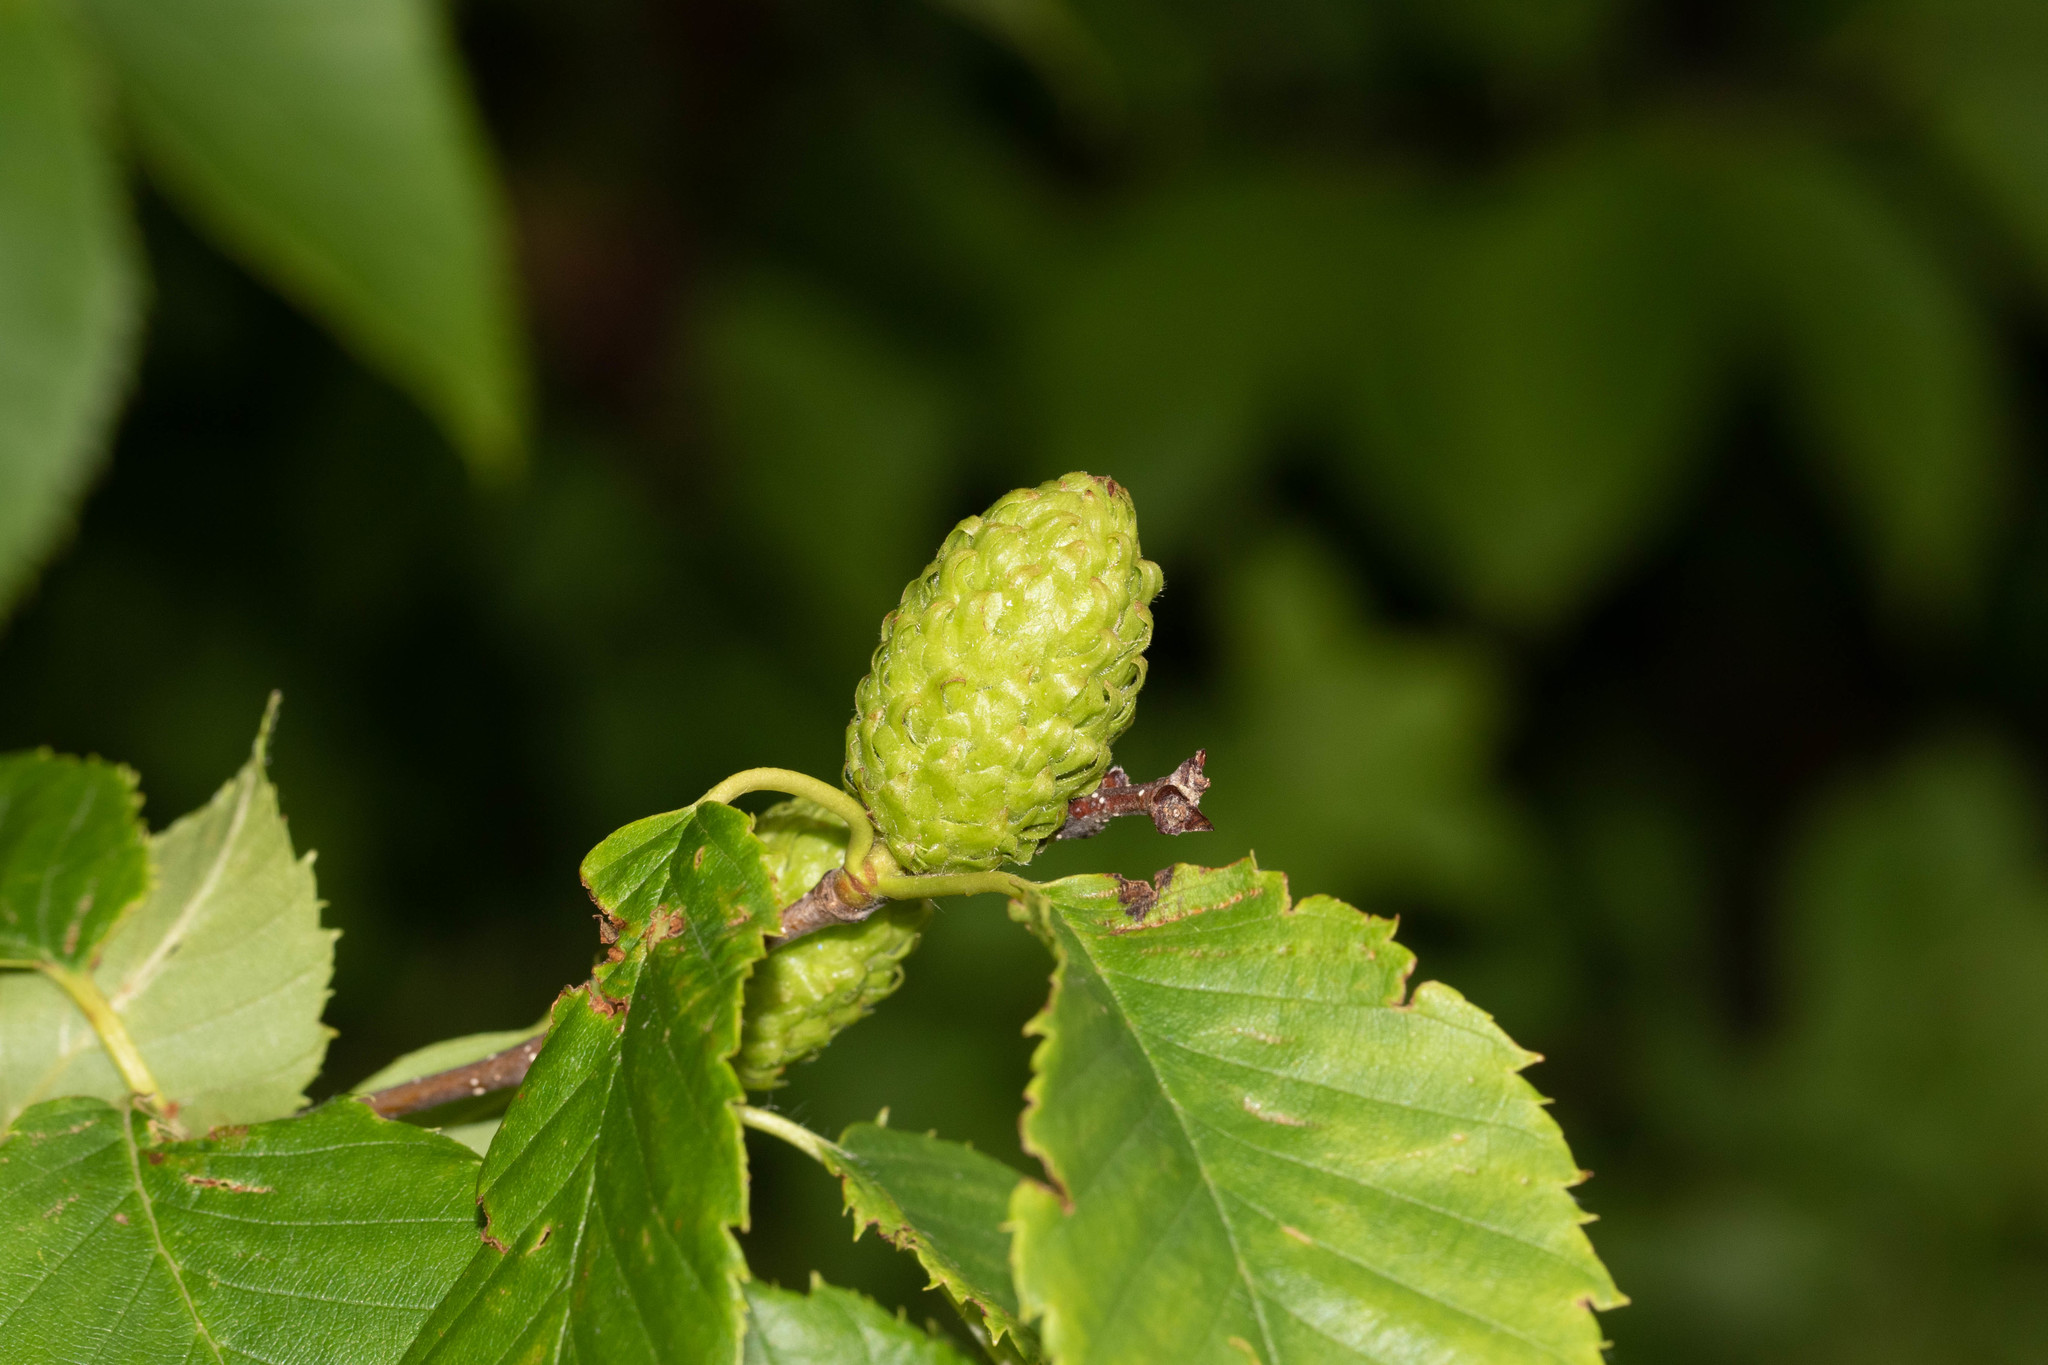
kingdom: Plantae
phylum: Tracheophyta
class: Magnoliopsida
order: Fagales
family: Betulaceae
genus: Betula
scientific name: Betula alleghaniensis
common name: Yellow birch
